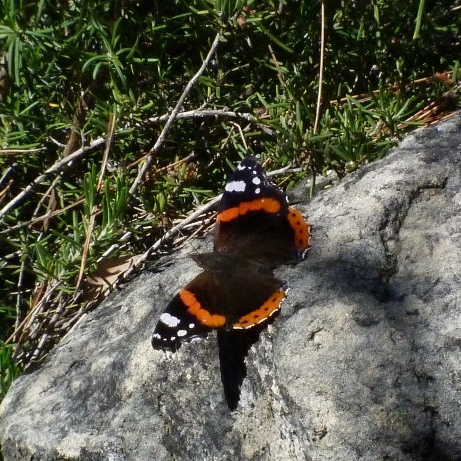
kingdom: Animalia
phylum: Arthropoda
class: Insecta
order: Lepidoptera
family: Nymphalidae
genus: Vanessa
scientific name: Vanessa atalanta
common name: Red admiral
